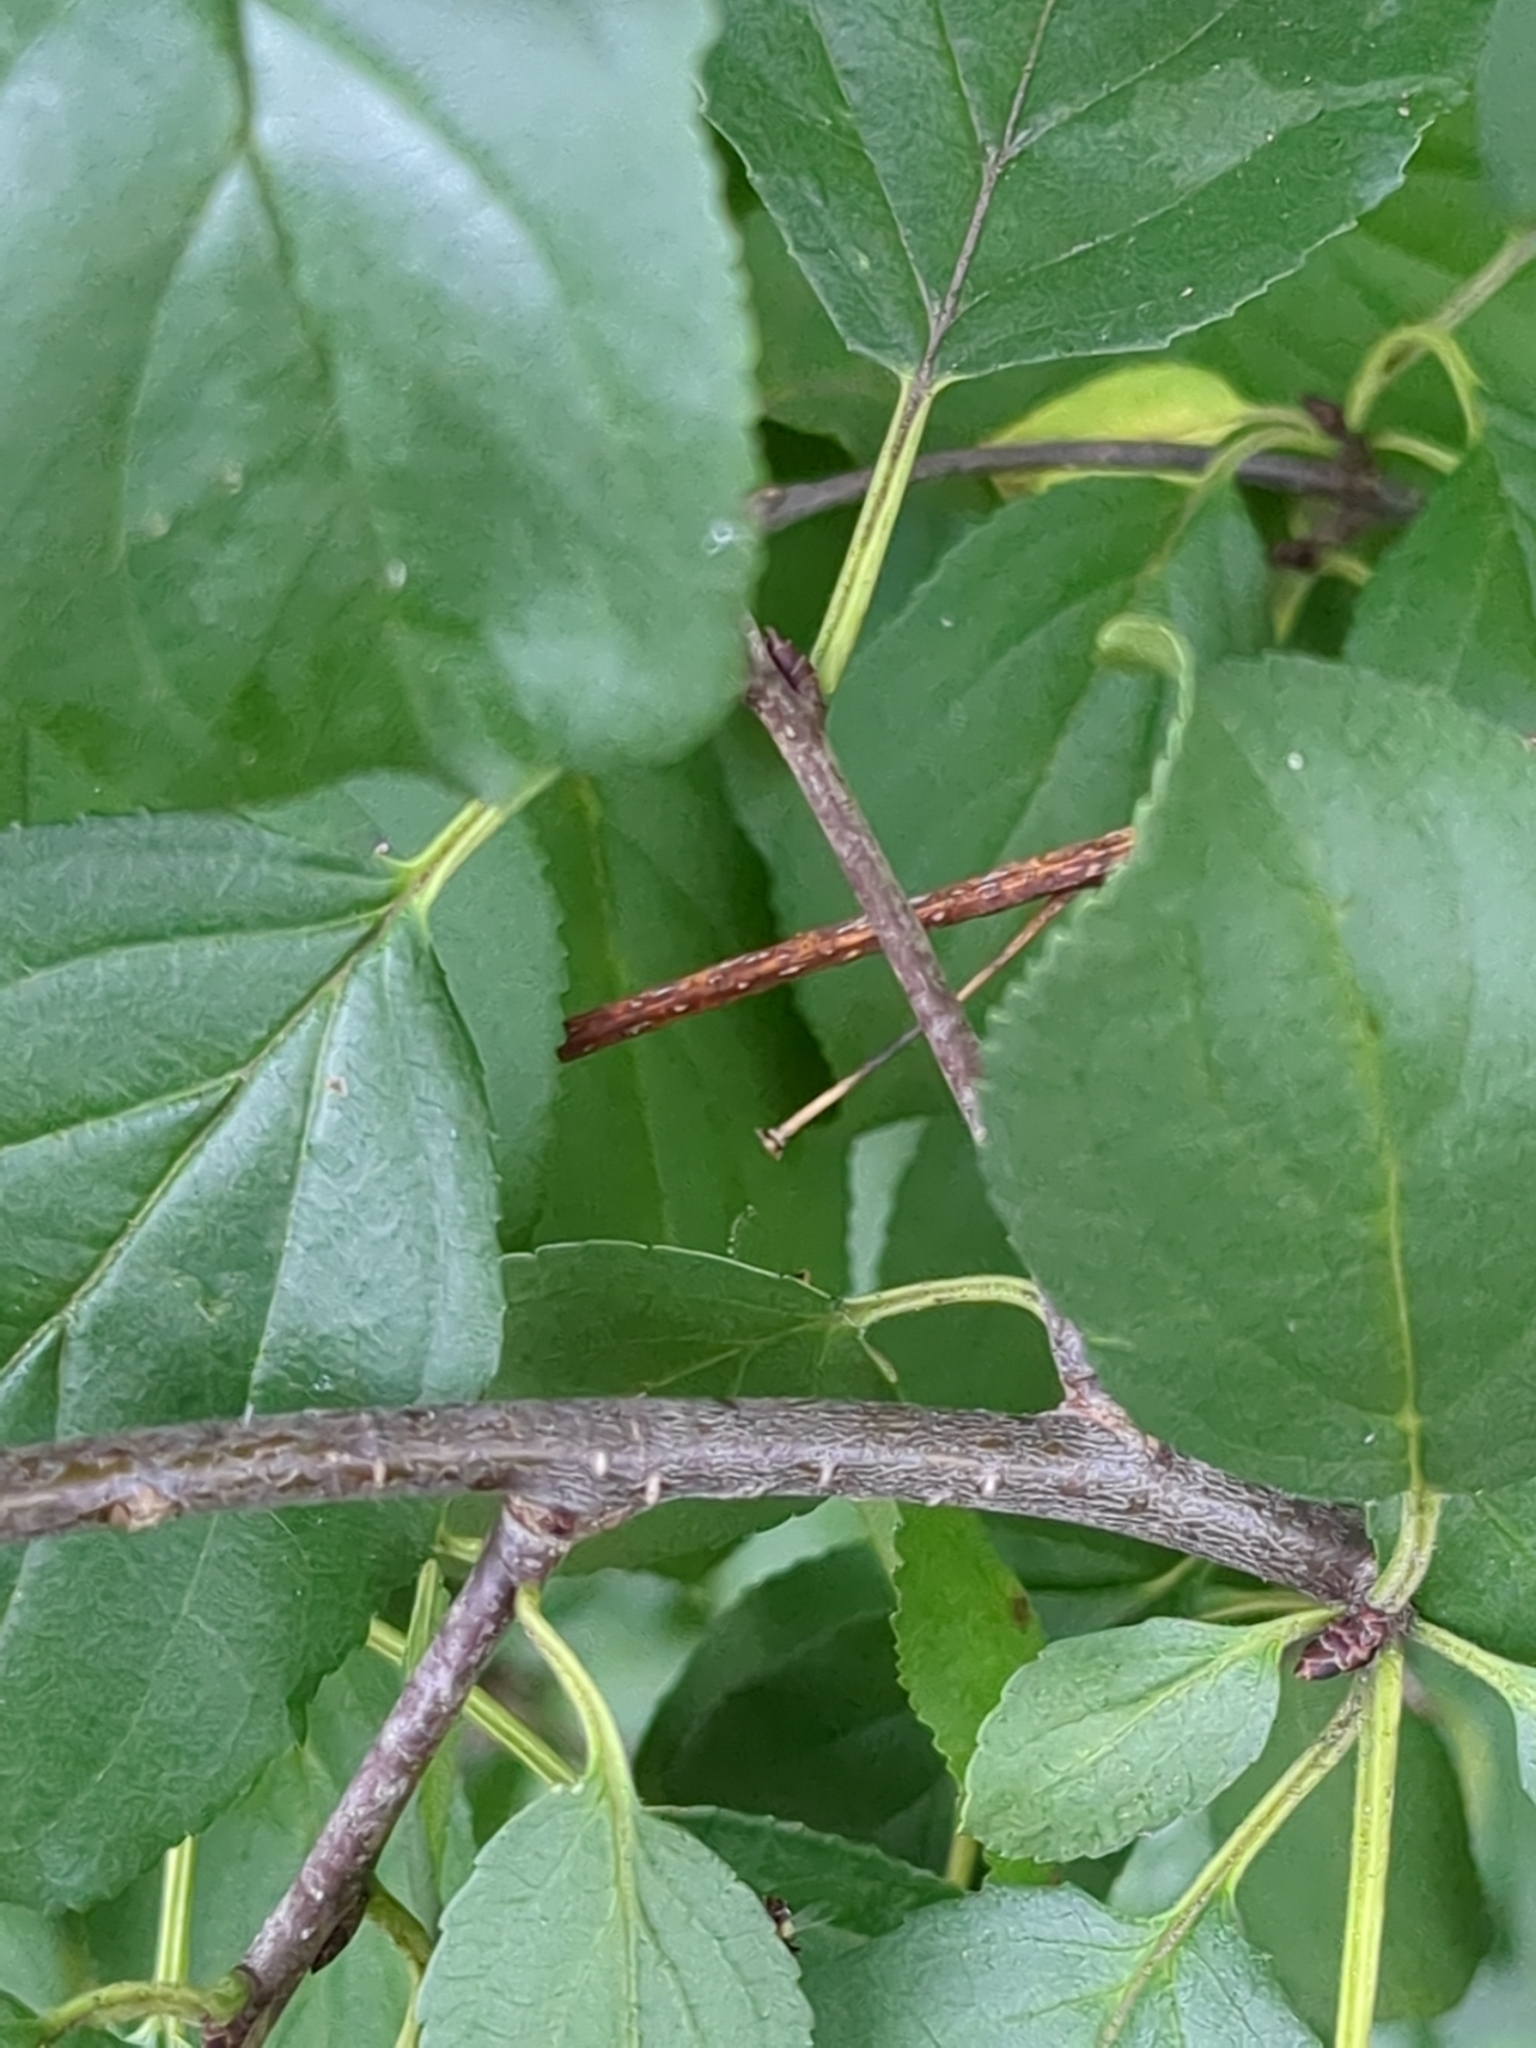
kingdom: Plantae
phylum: Tracheophyta
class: Magnoliopsida
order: Rosales
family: Rhamnaceae
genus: Rhamnus
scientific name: Rhamnus cathartica
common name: Common buckthorn
